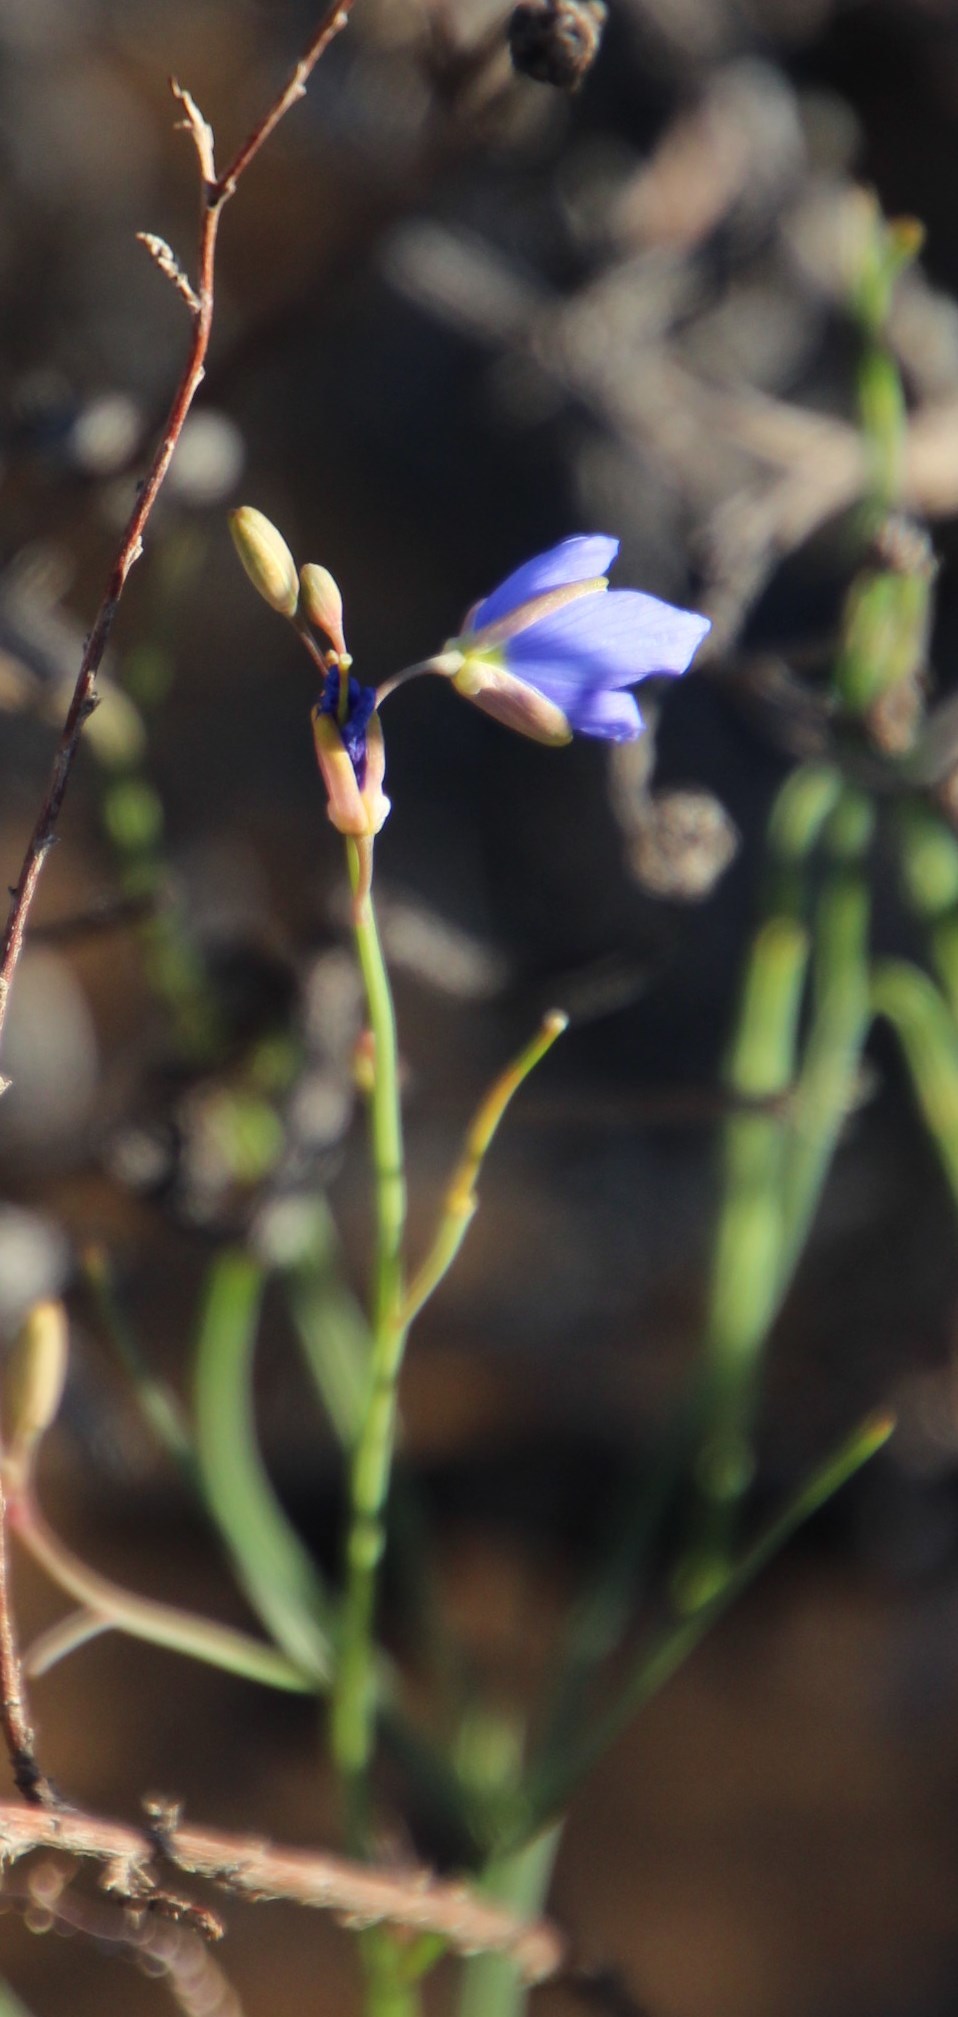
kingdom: Plantae
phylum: Tracheophyta
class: Magnoliopsida
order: Brassicales
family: Brassicaceae
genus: Heliophila
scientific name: Heliophila decurva
